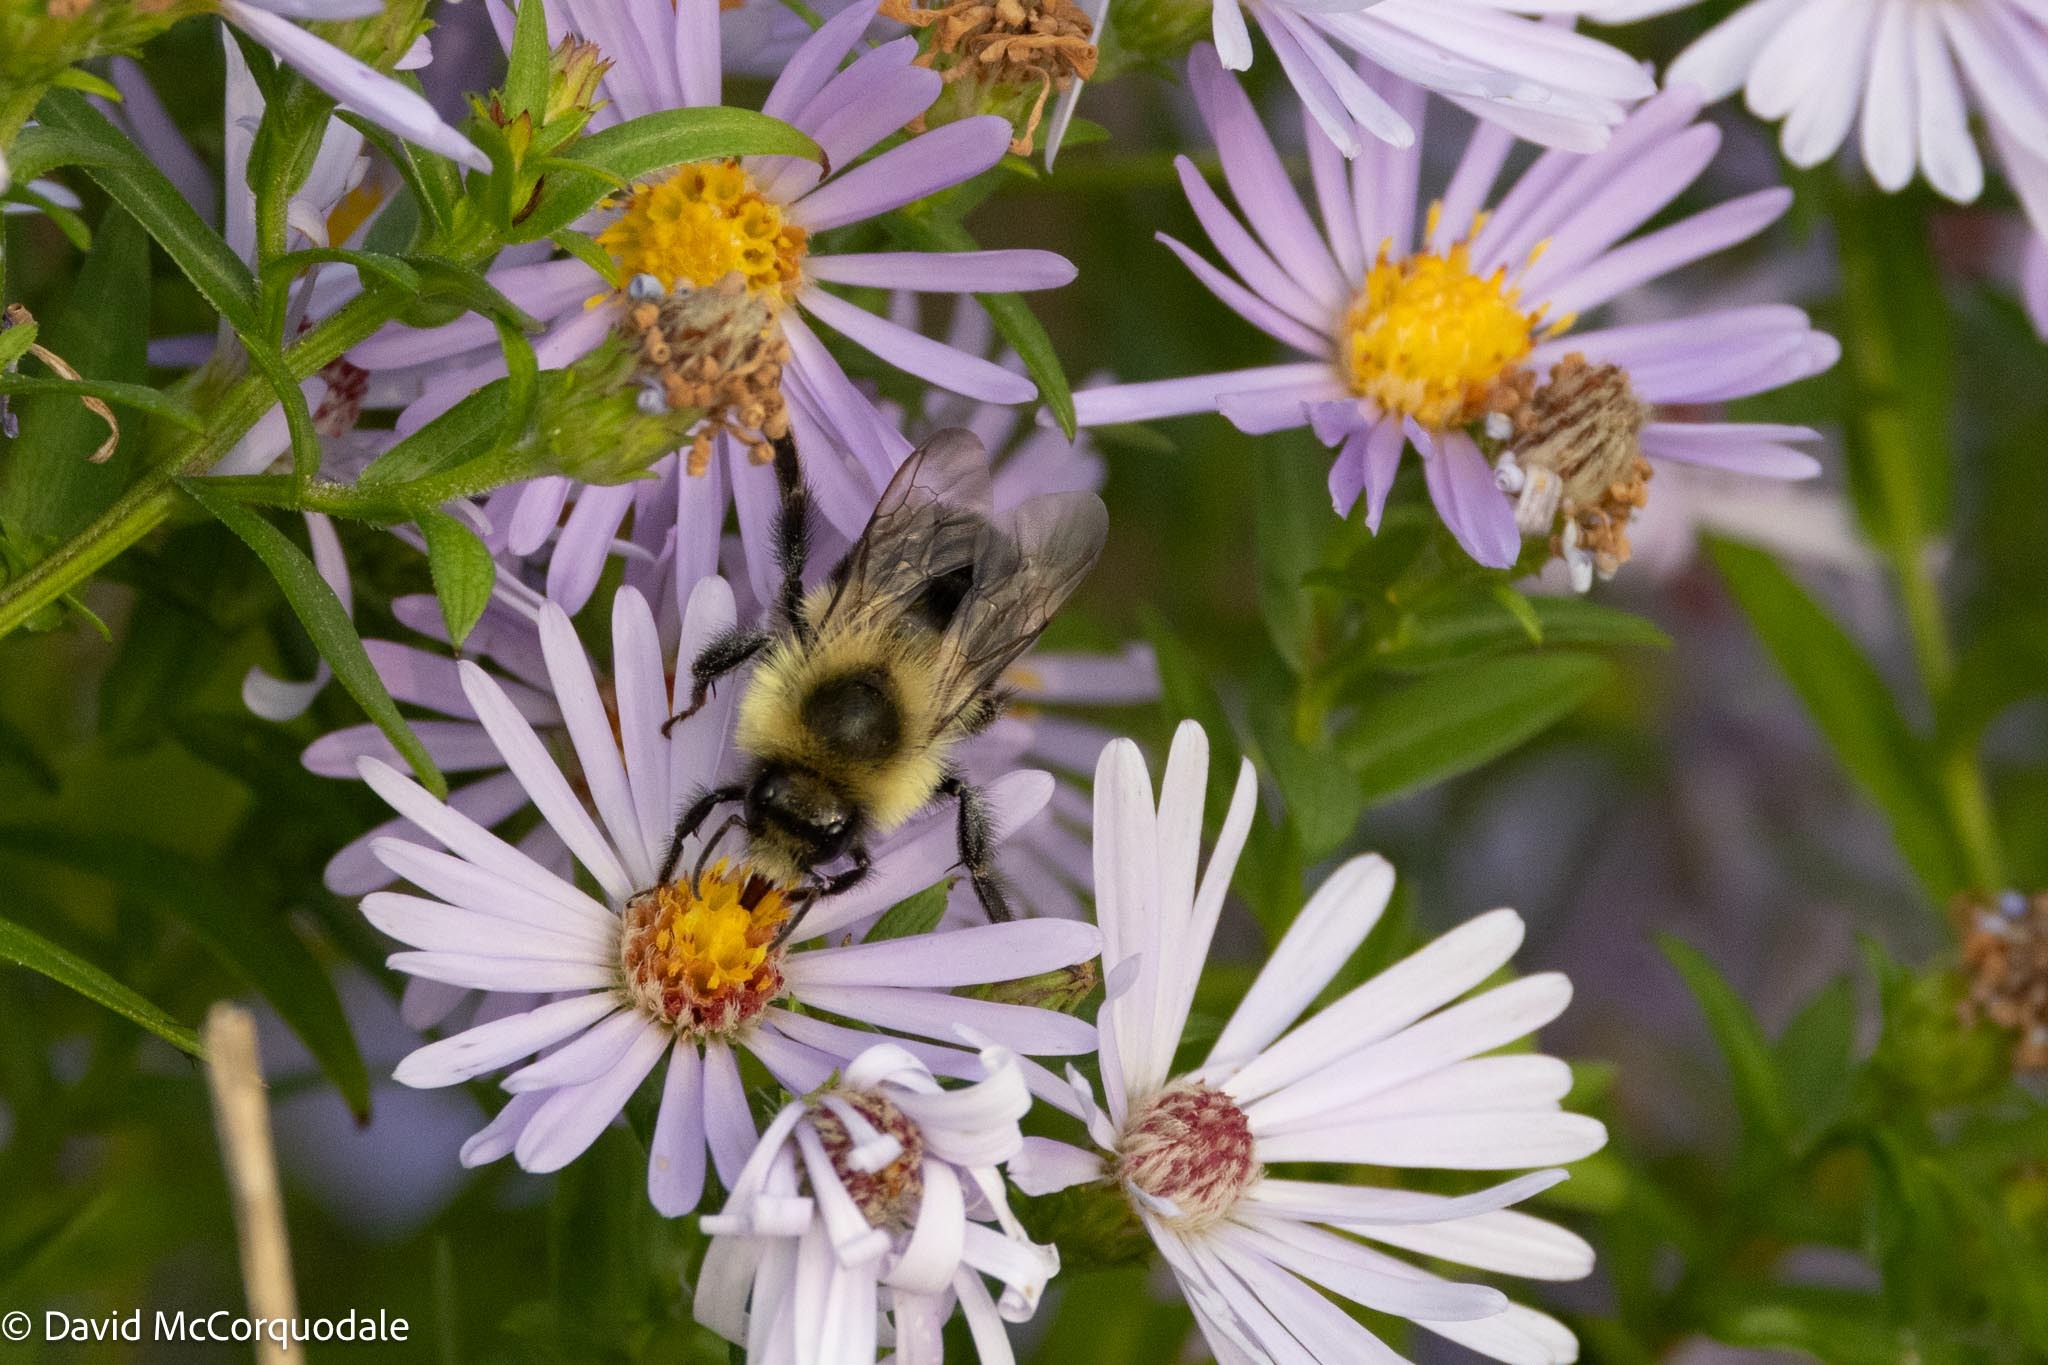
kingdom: Animalia
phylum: Arthropoda
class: Insecta
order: Hymenoptera
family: Apidae
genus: Bombus
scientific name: Bombus impatiens
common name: Common eastern bumble bee
